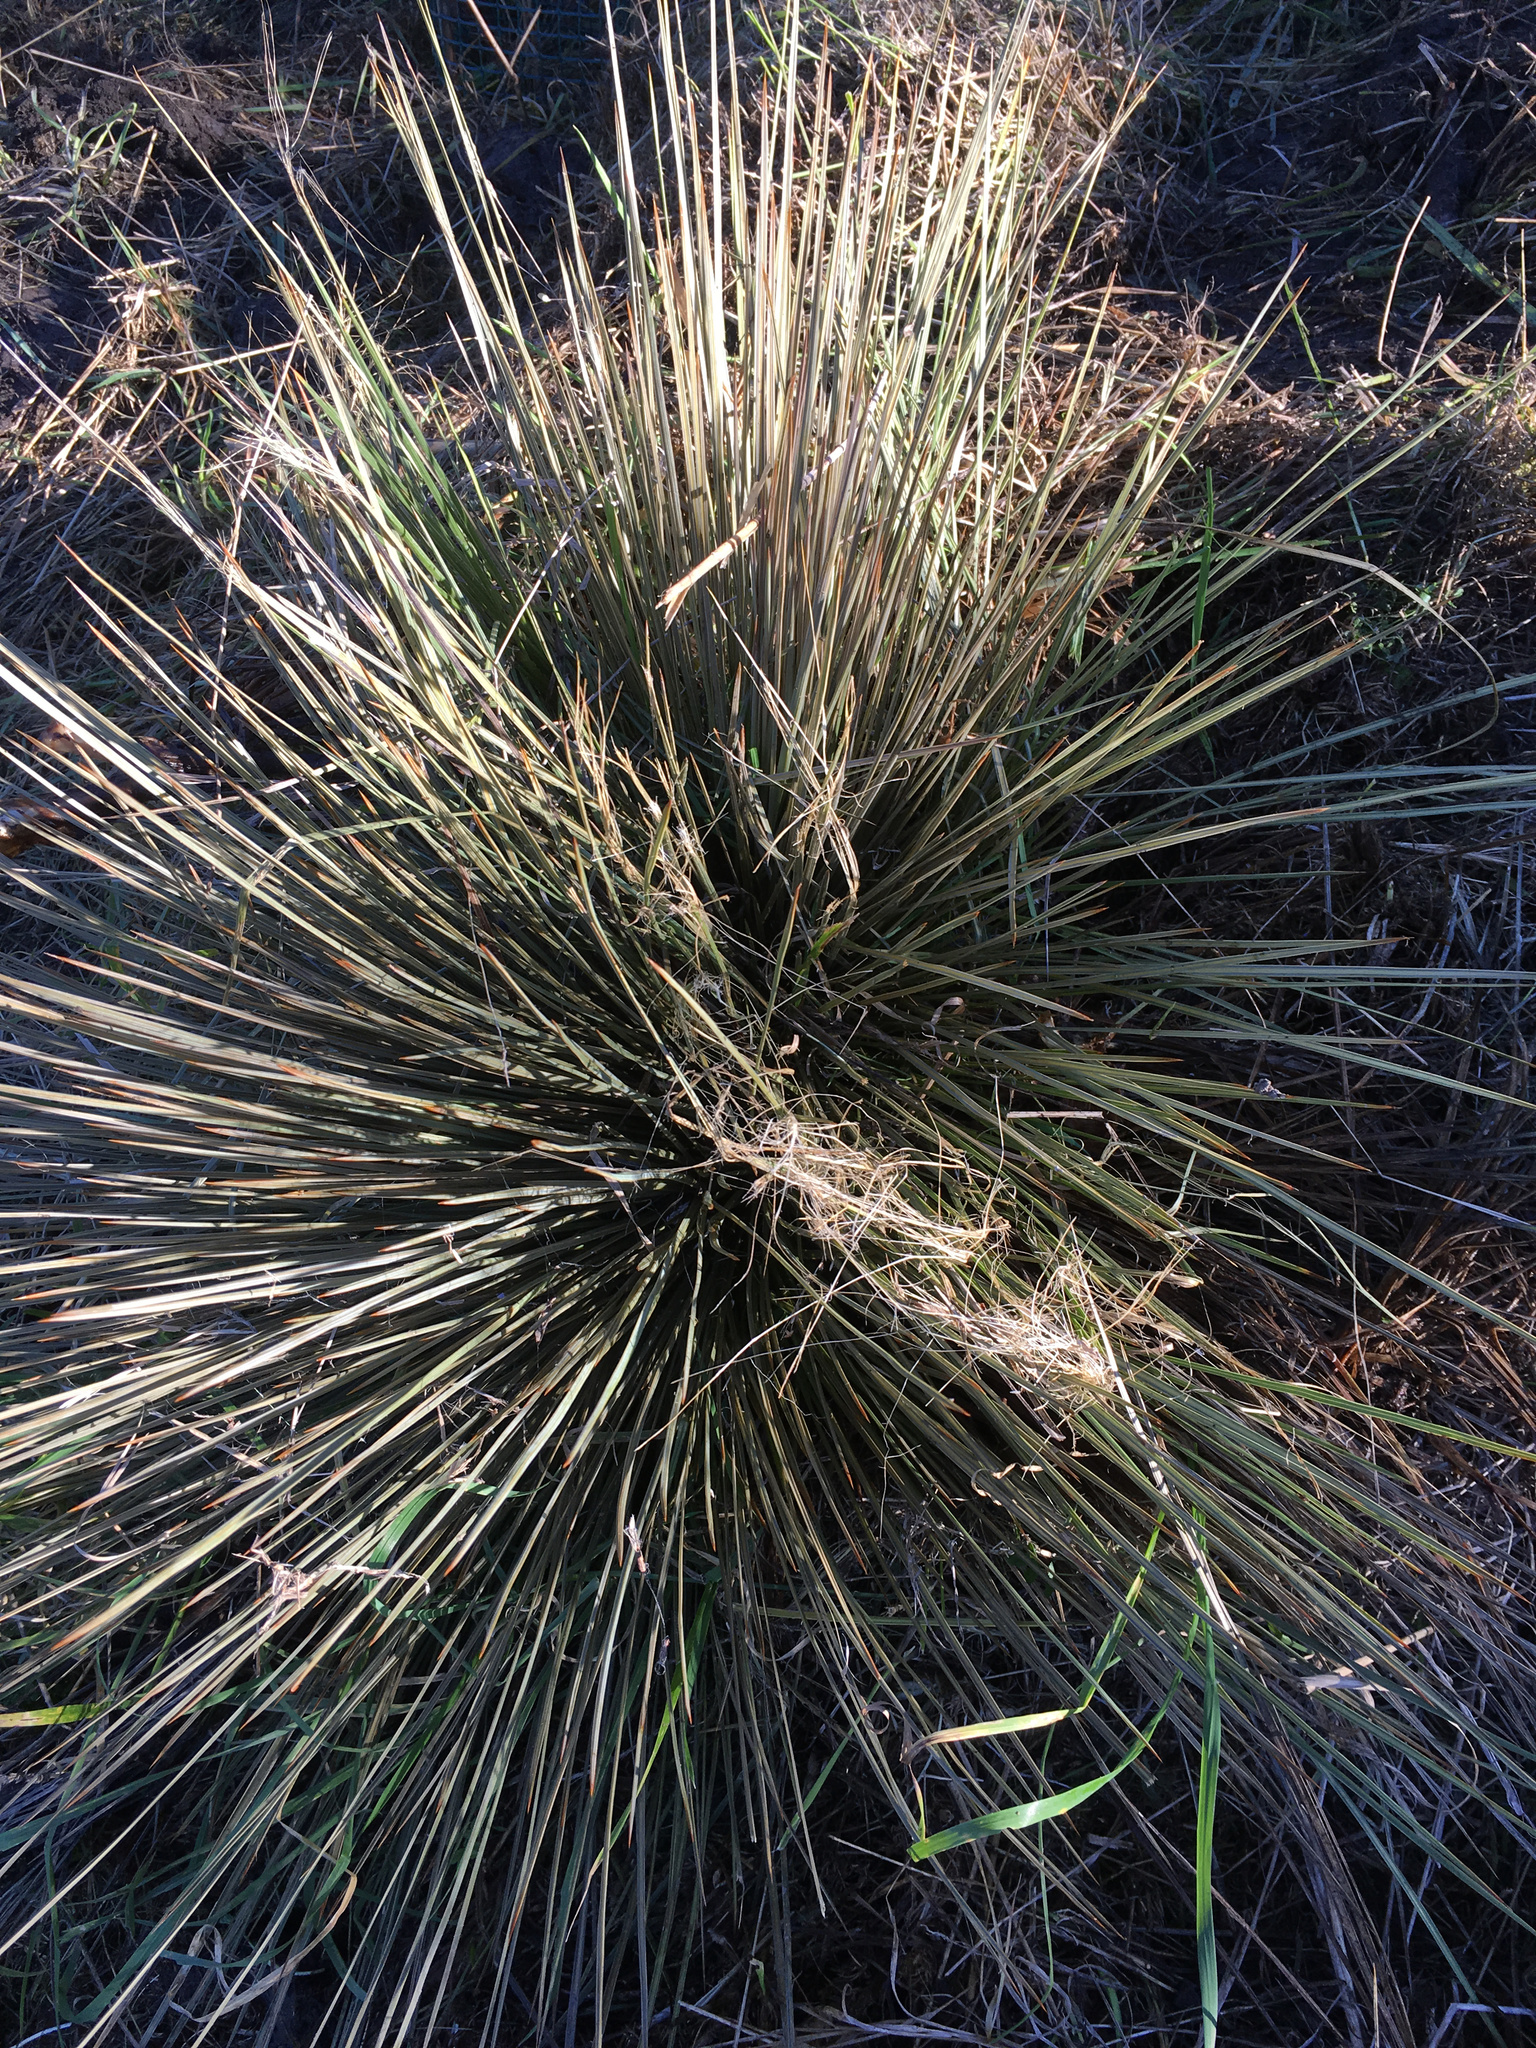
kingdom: Plantae
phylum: Tracheophyta
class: Magnoliopsida
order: Apiales
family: Apiaceae
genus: Aciphylla
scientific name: Aciphylla subflabellata
